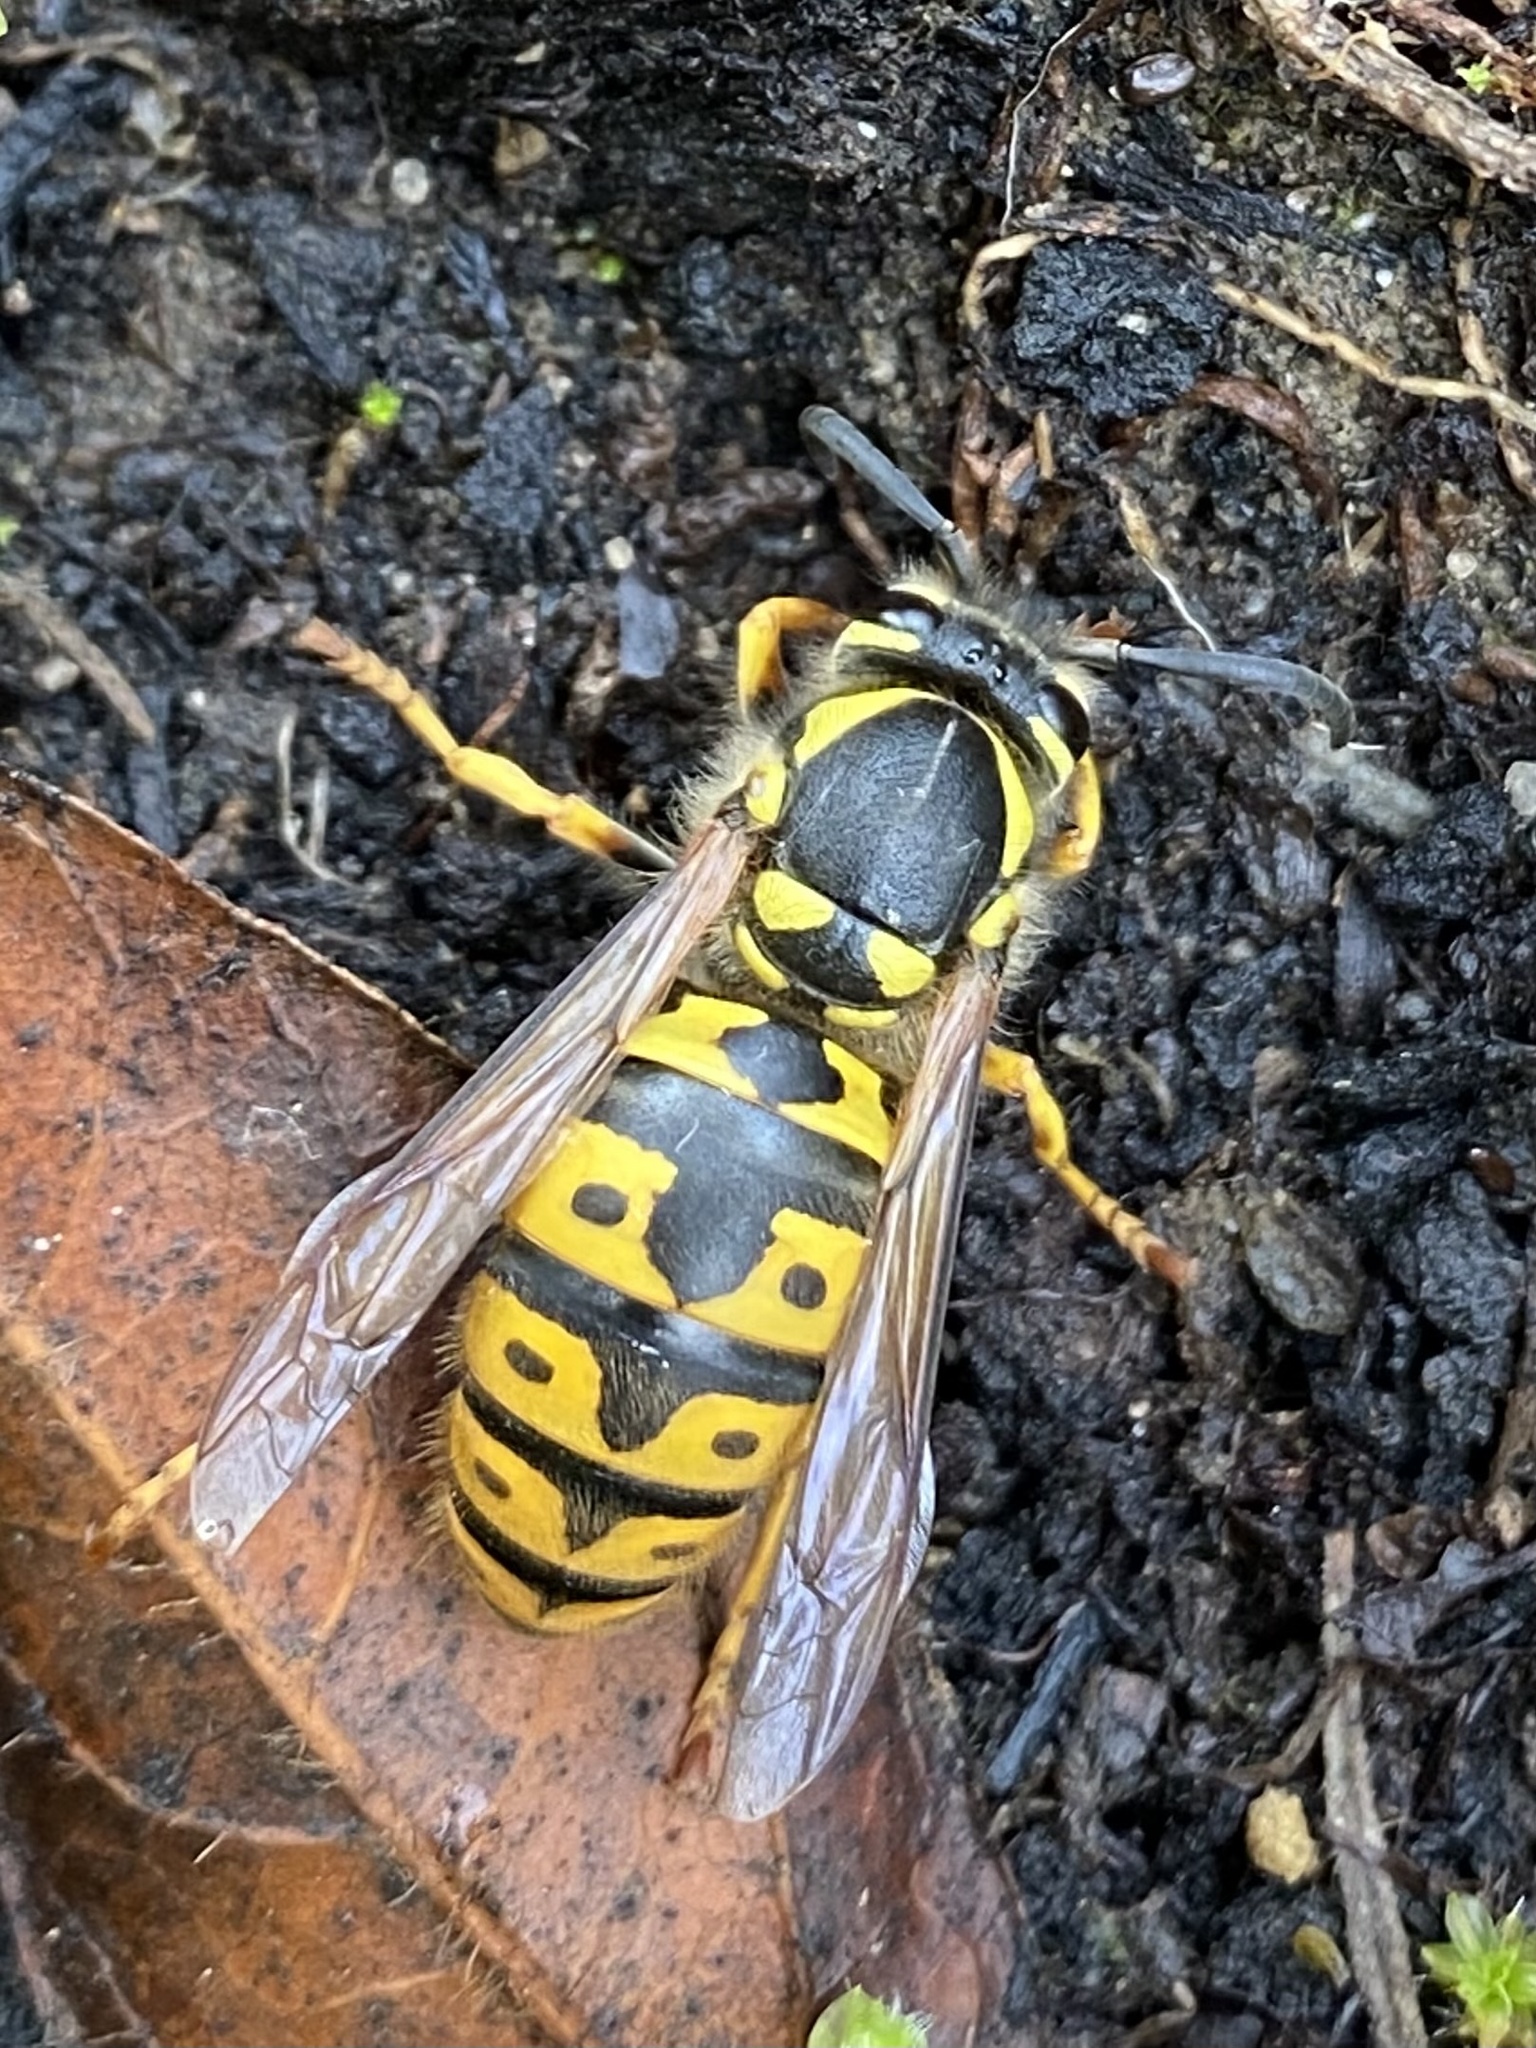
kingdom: Animalia
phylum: Arthropoda
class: Insecta
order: Hymenoptera
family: Vespidae
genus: Vespula
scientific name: Vespula germanica
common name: German wasp
